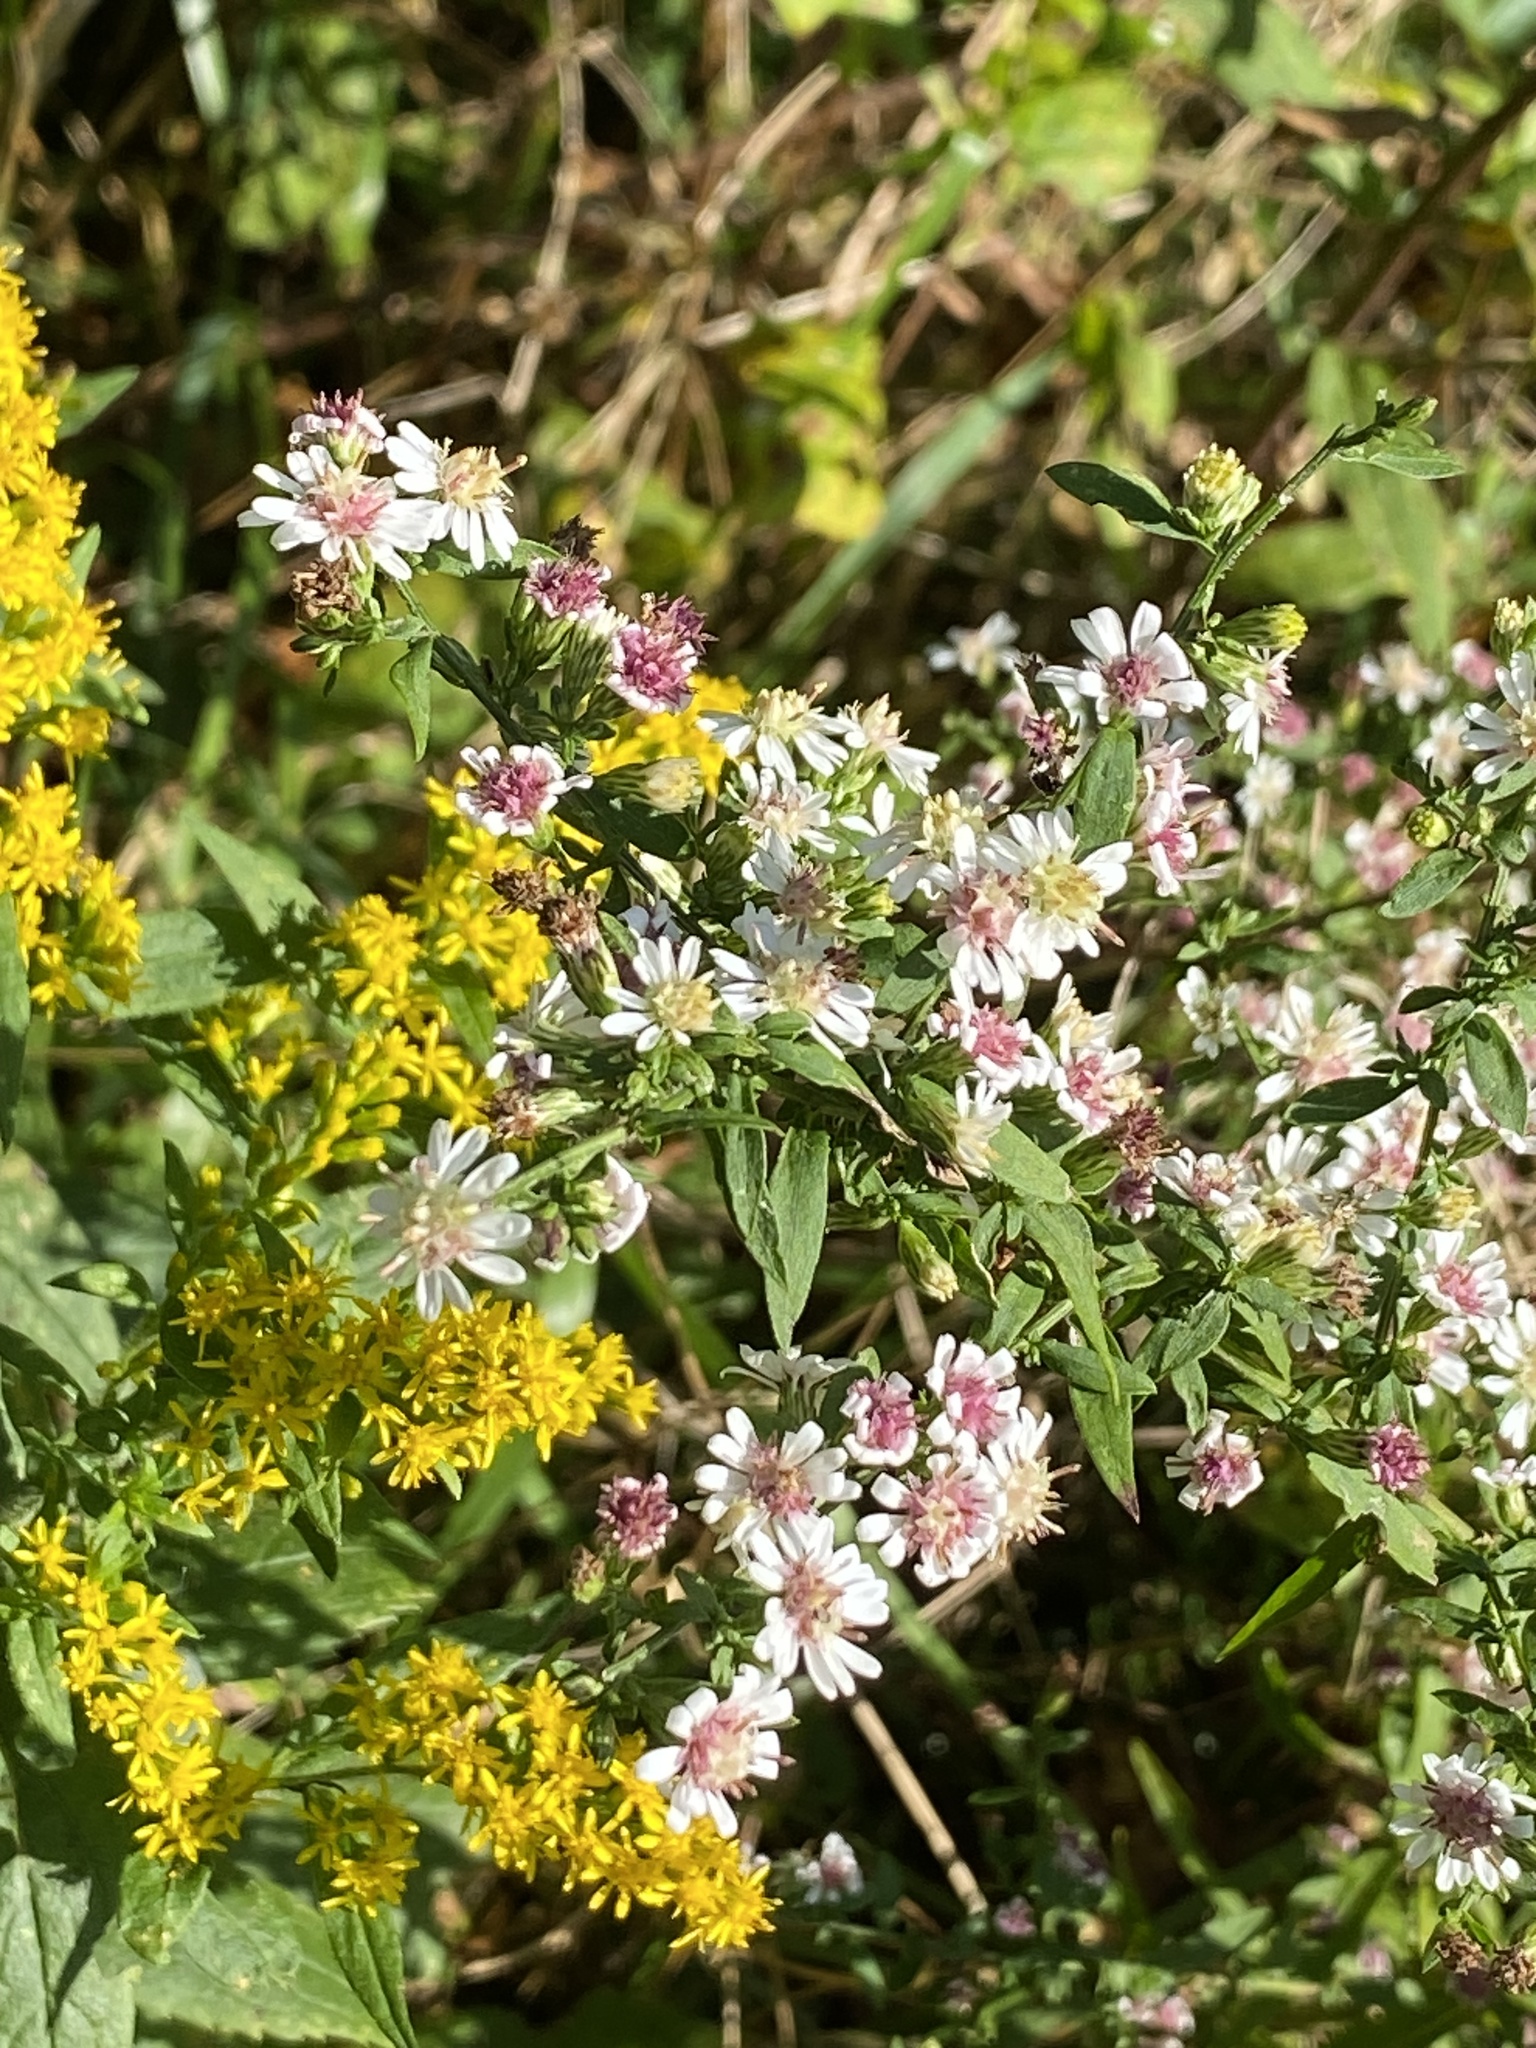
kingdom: Plantae
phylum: Tracheophyta
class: Magnoliopsida
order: Asterales
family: Asteraceae
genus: Symphyotrichum
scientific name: Symphyotrichum lateriflorum
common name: Calico aster
